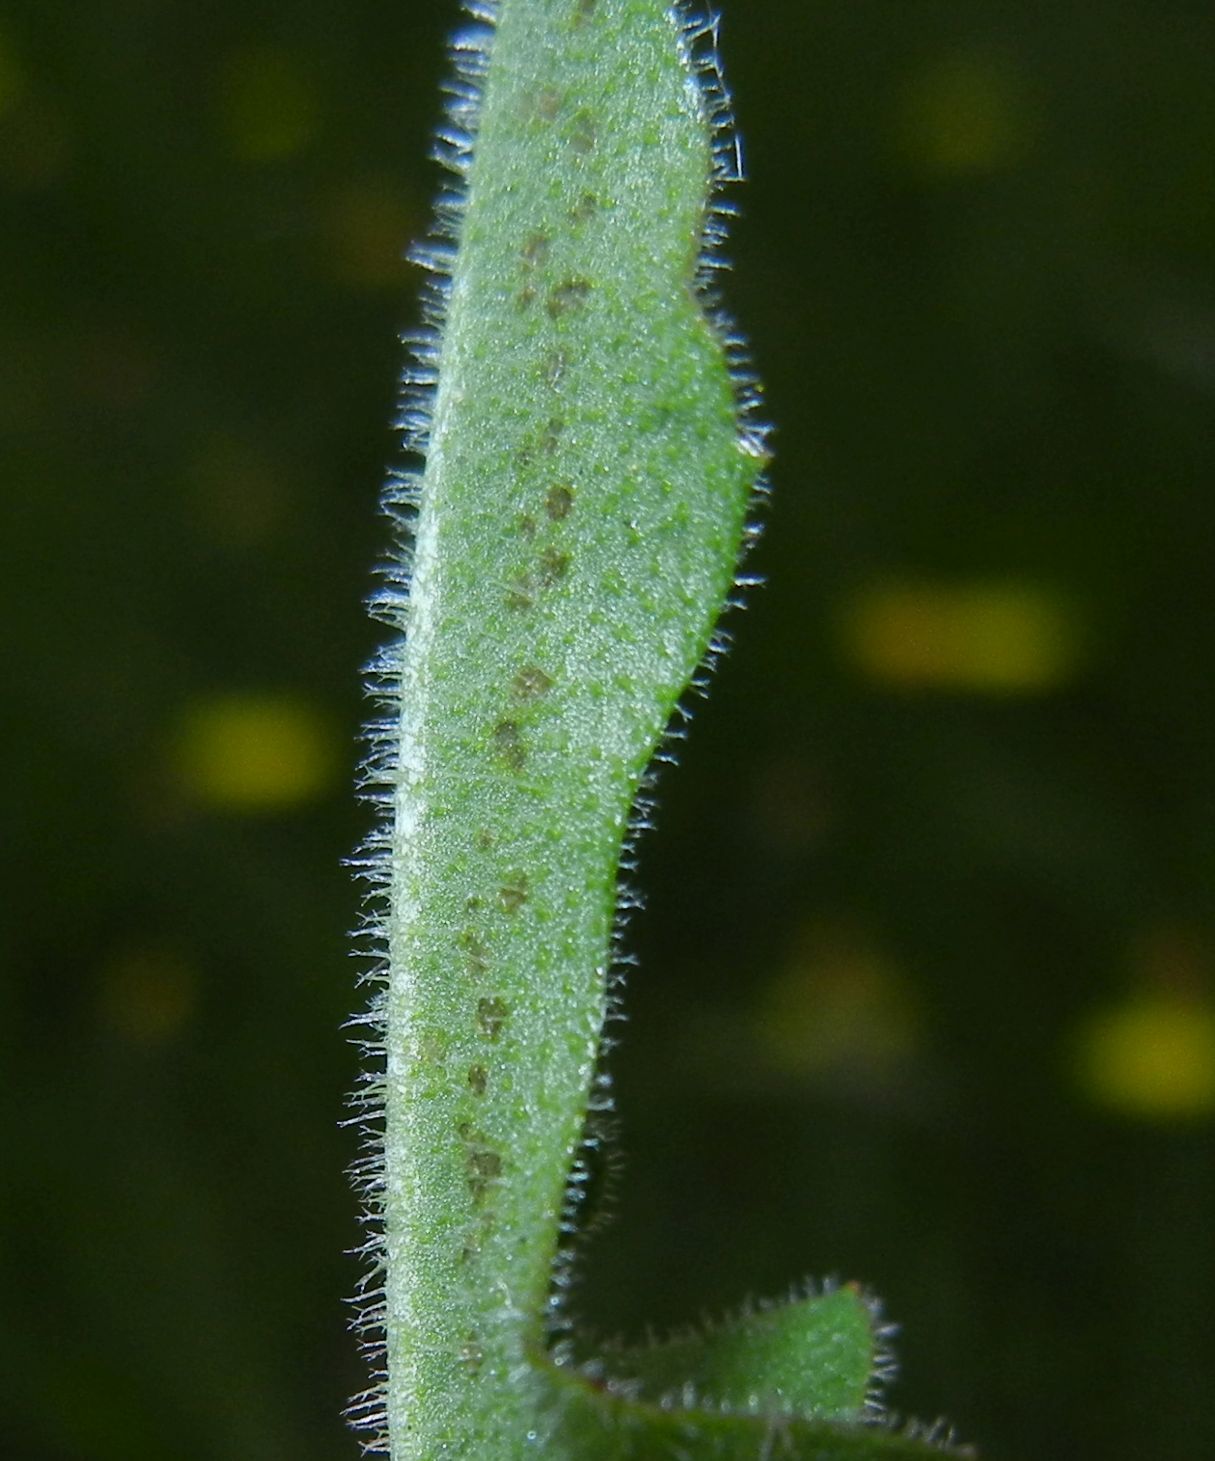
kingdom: Plantae
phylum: Tracheophyta
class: Magnoliopsida
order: Asterales
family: Asteraceae
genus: Leontodon
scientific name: Leontodon hispidus
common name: Rough hawkbit
